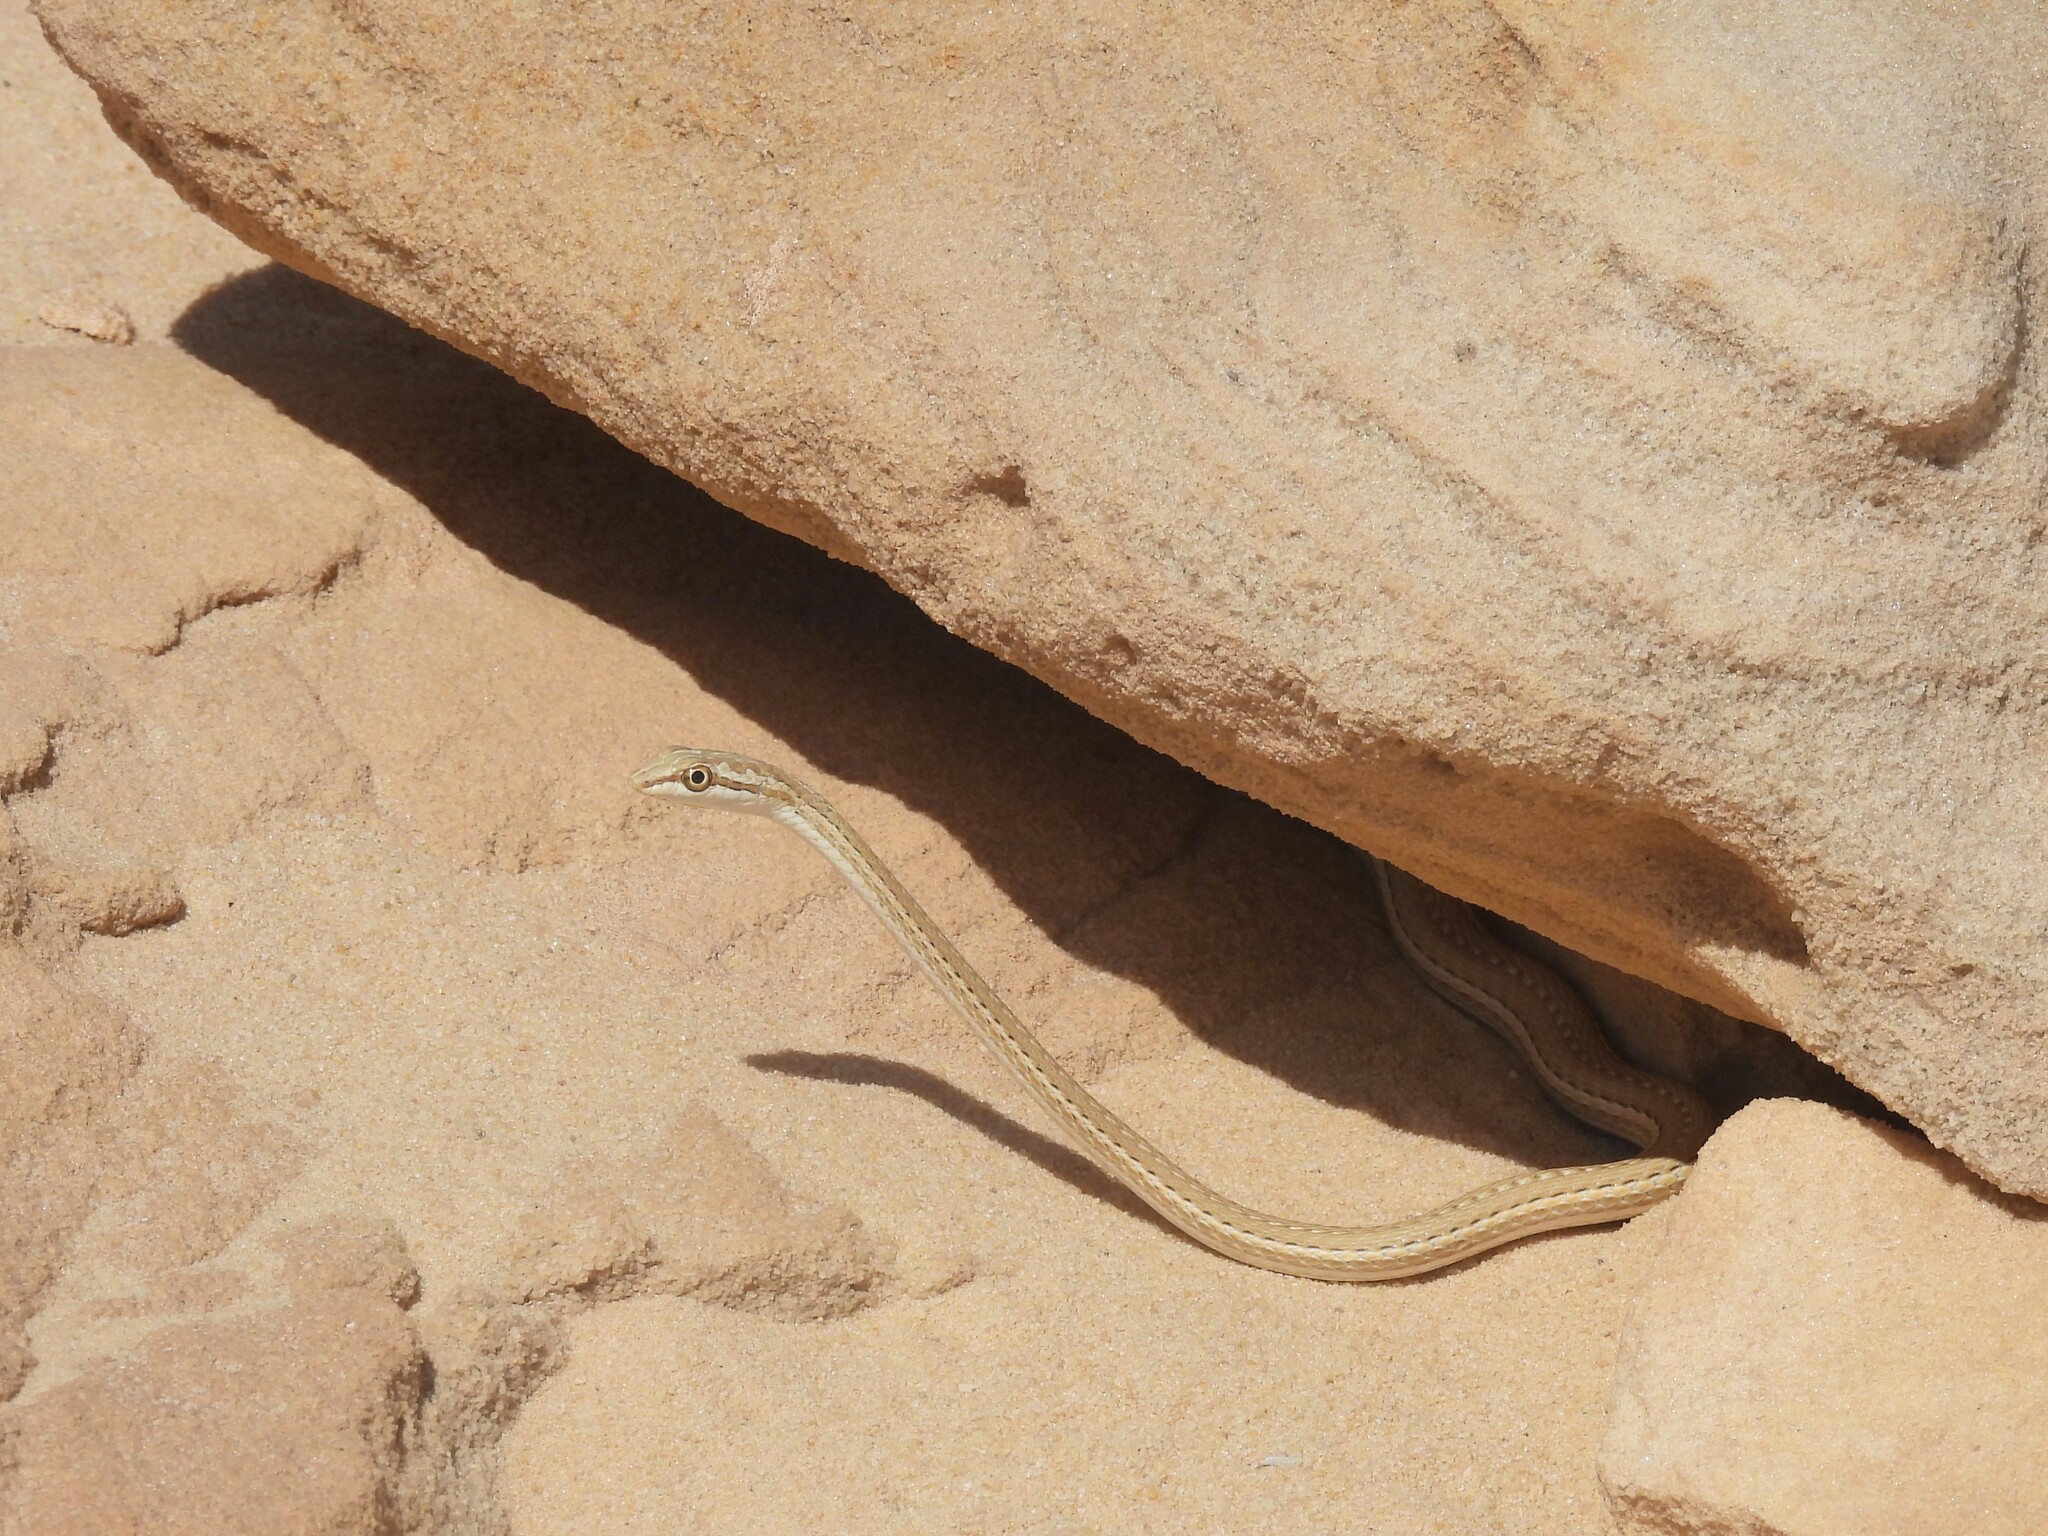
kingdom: Animalia
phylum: Chordata
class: Squamata
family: Psammophiidae
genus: Psammophis
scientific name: Psammophis schokari
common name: Schokari sand racer
